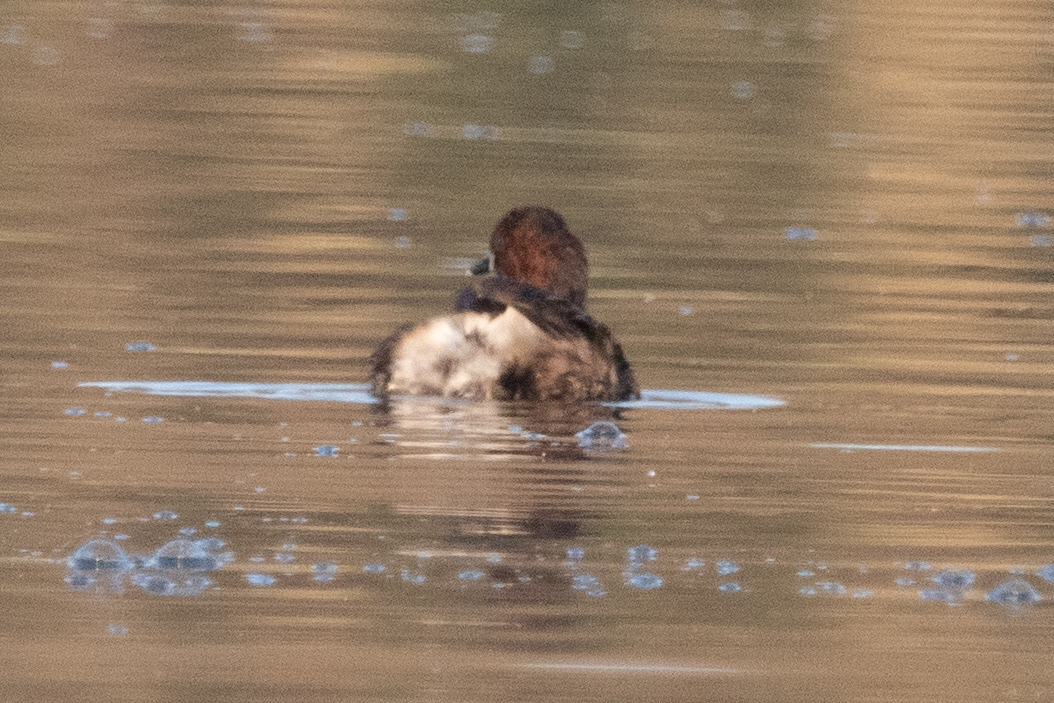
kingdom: Animalia
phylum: Chordata
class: Aves
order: Podicipediformes
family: Podicipedidae
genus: Tachybaptus
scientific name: Tachybaptus ruficollis
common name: Little grebe
